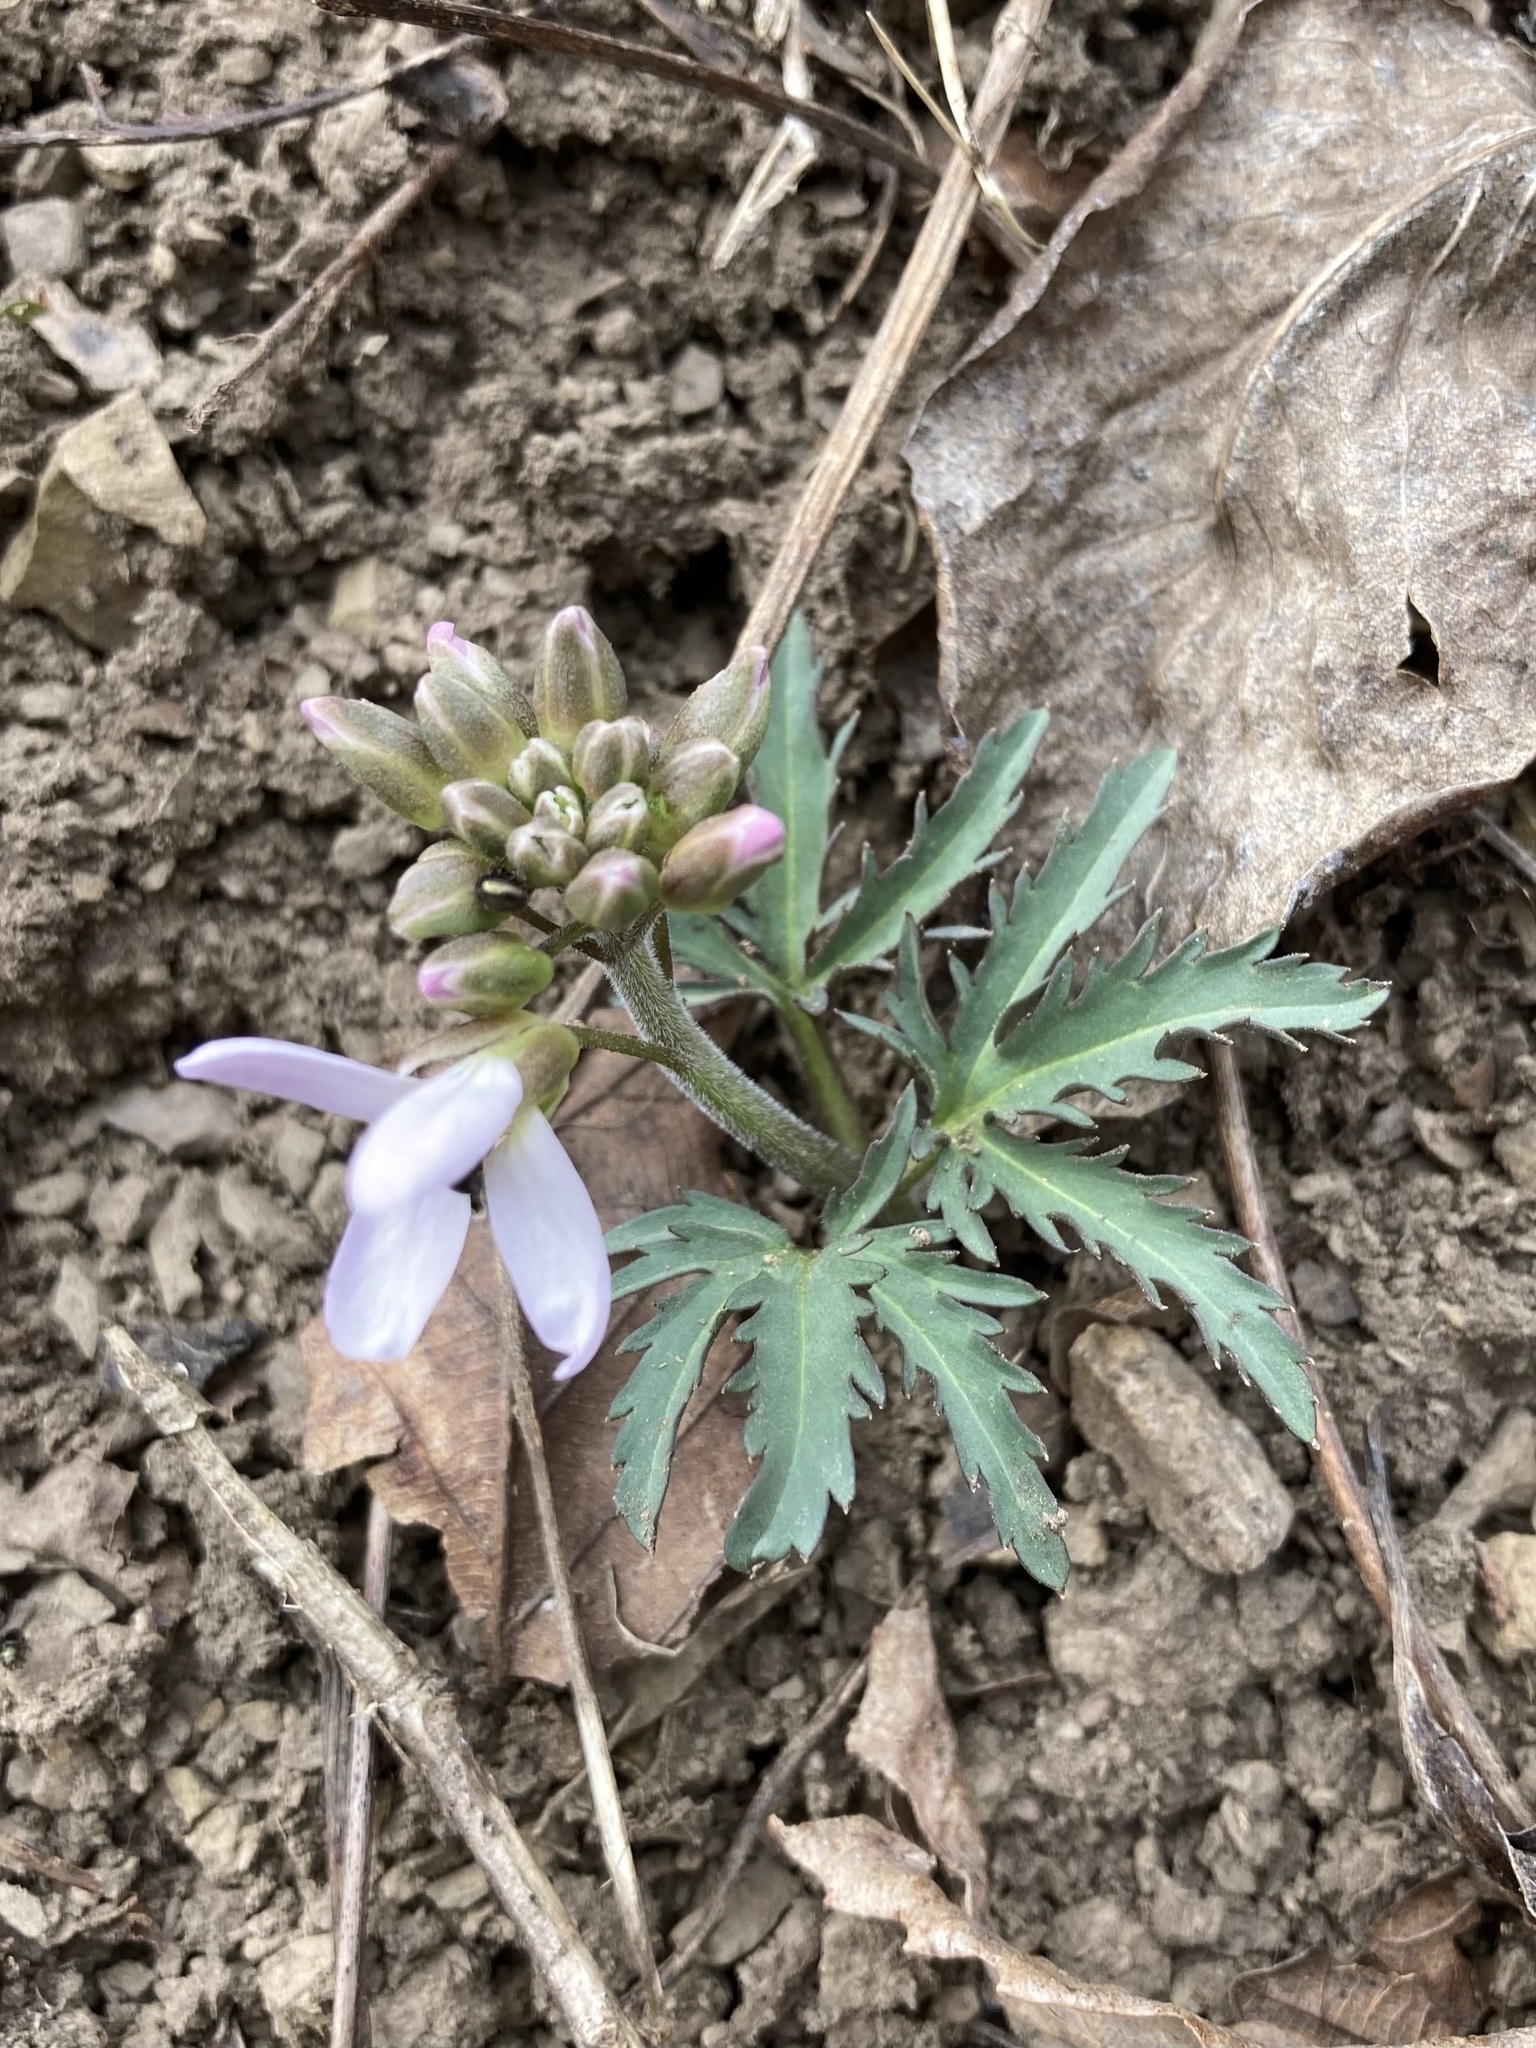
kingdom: Plantae
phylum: Tracheophyta
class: Magnoliopsida
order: Brassicales
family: Brassicaceae
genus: Cardamine
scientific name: Cardamine concatenata
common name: Cut-leaf toothcup
